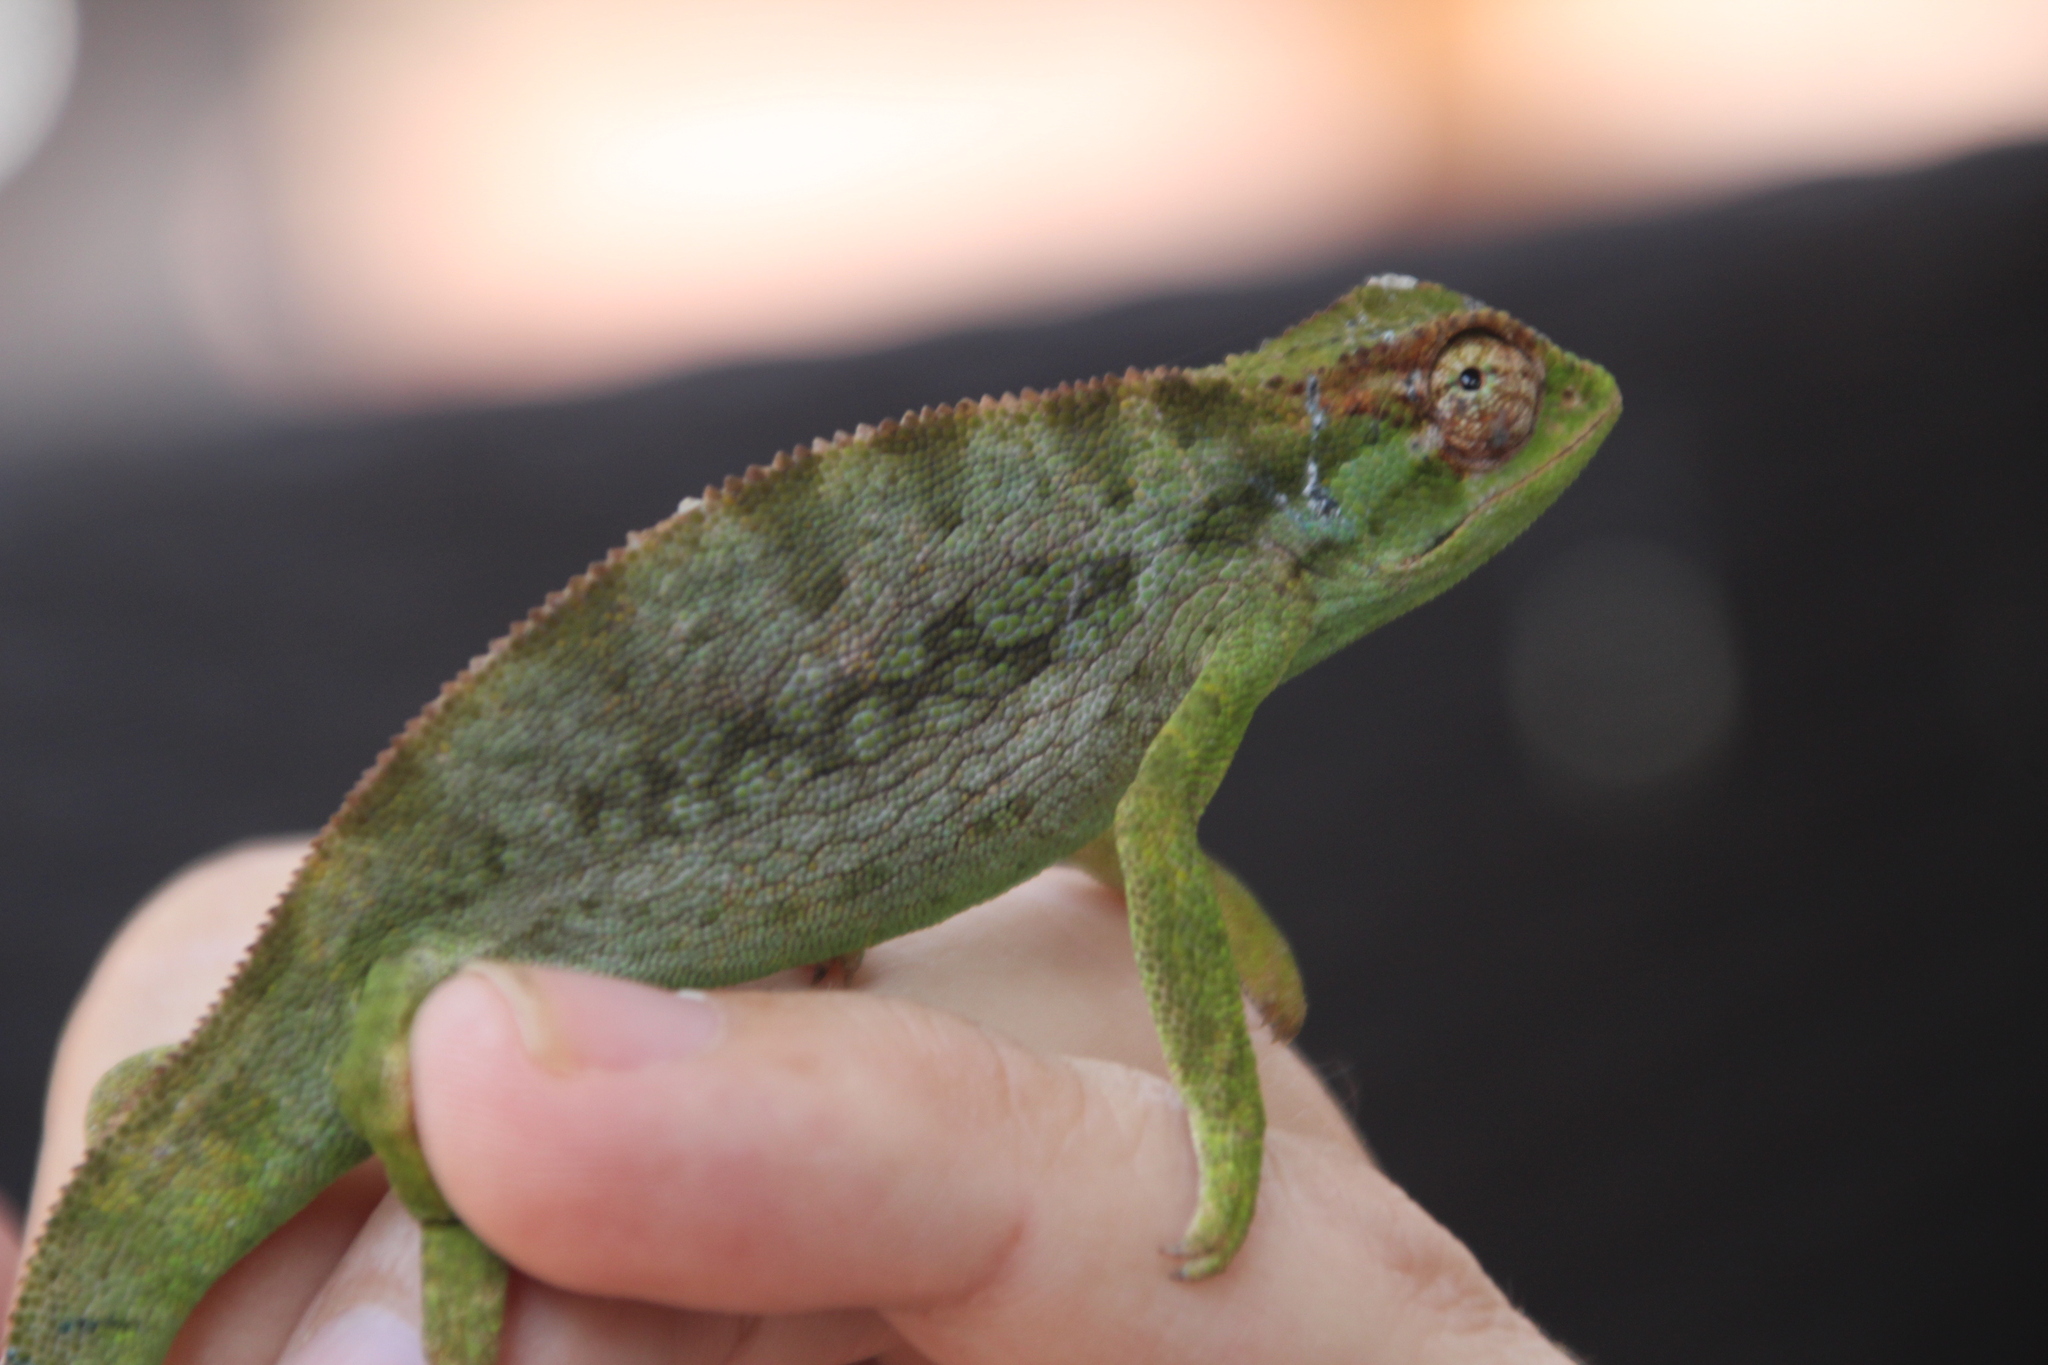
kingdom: Animalia
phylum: Chordata
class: Squamata
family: Chamaeleonidae
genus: Trioceros
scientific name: Trioceros affinis
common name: Beardless ethiopian montane chameleon
